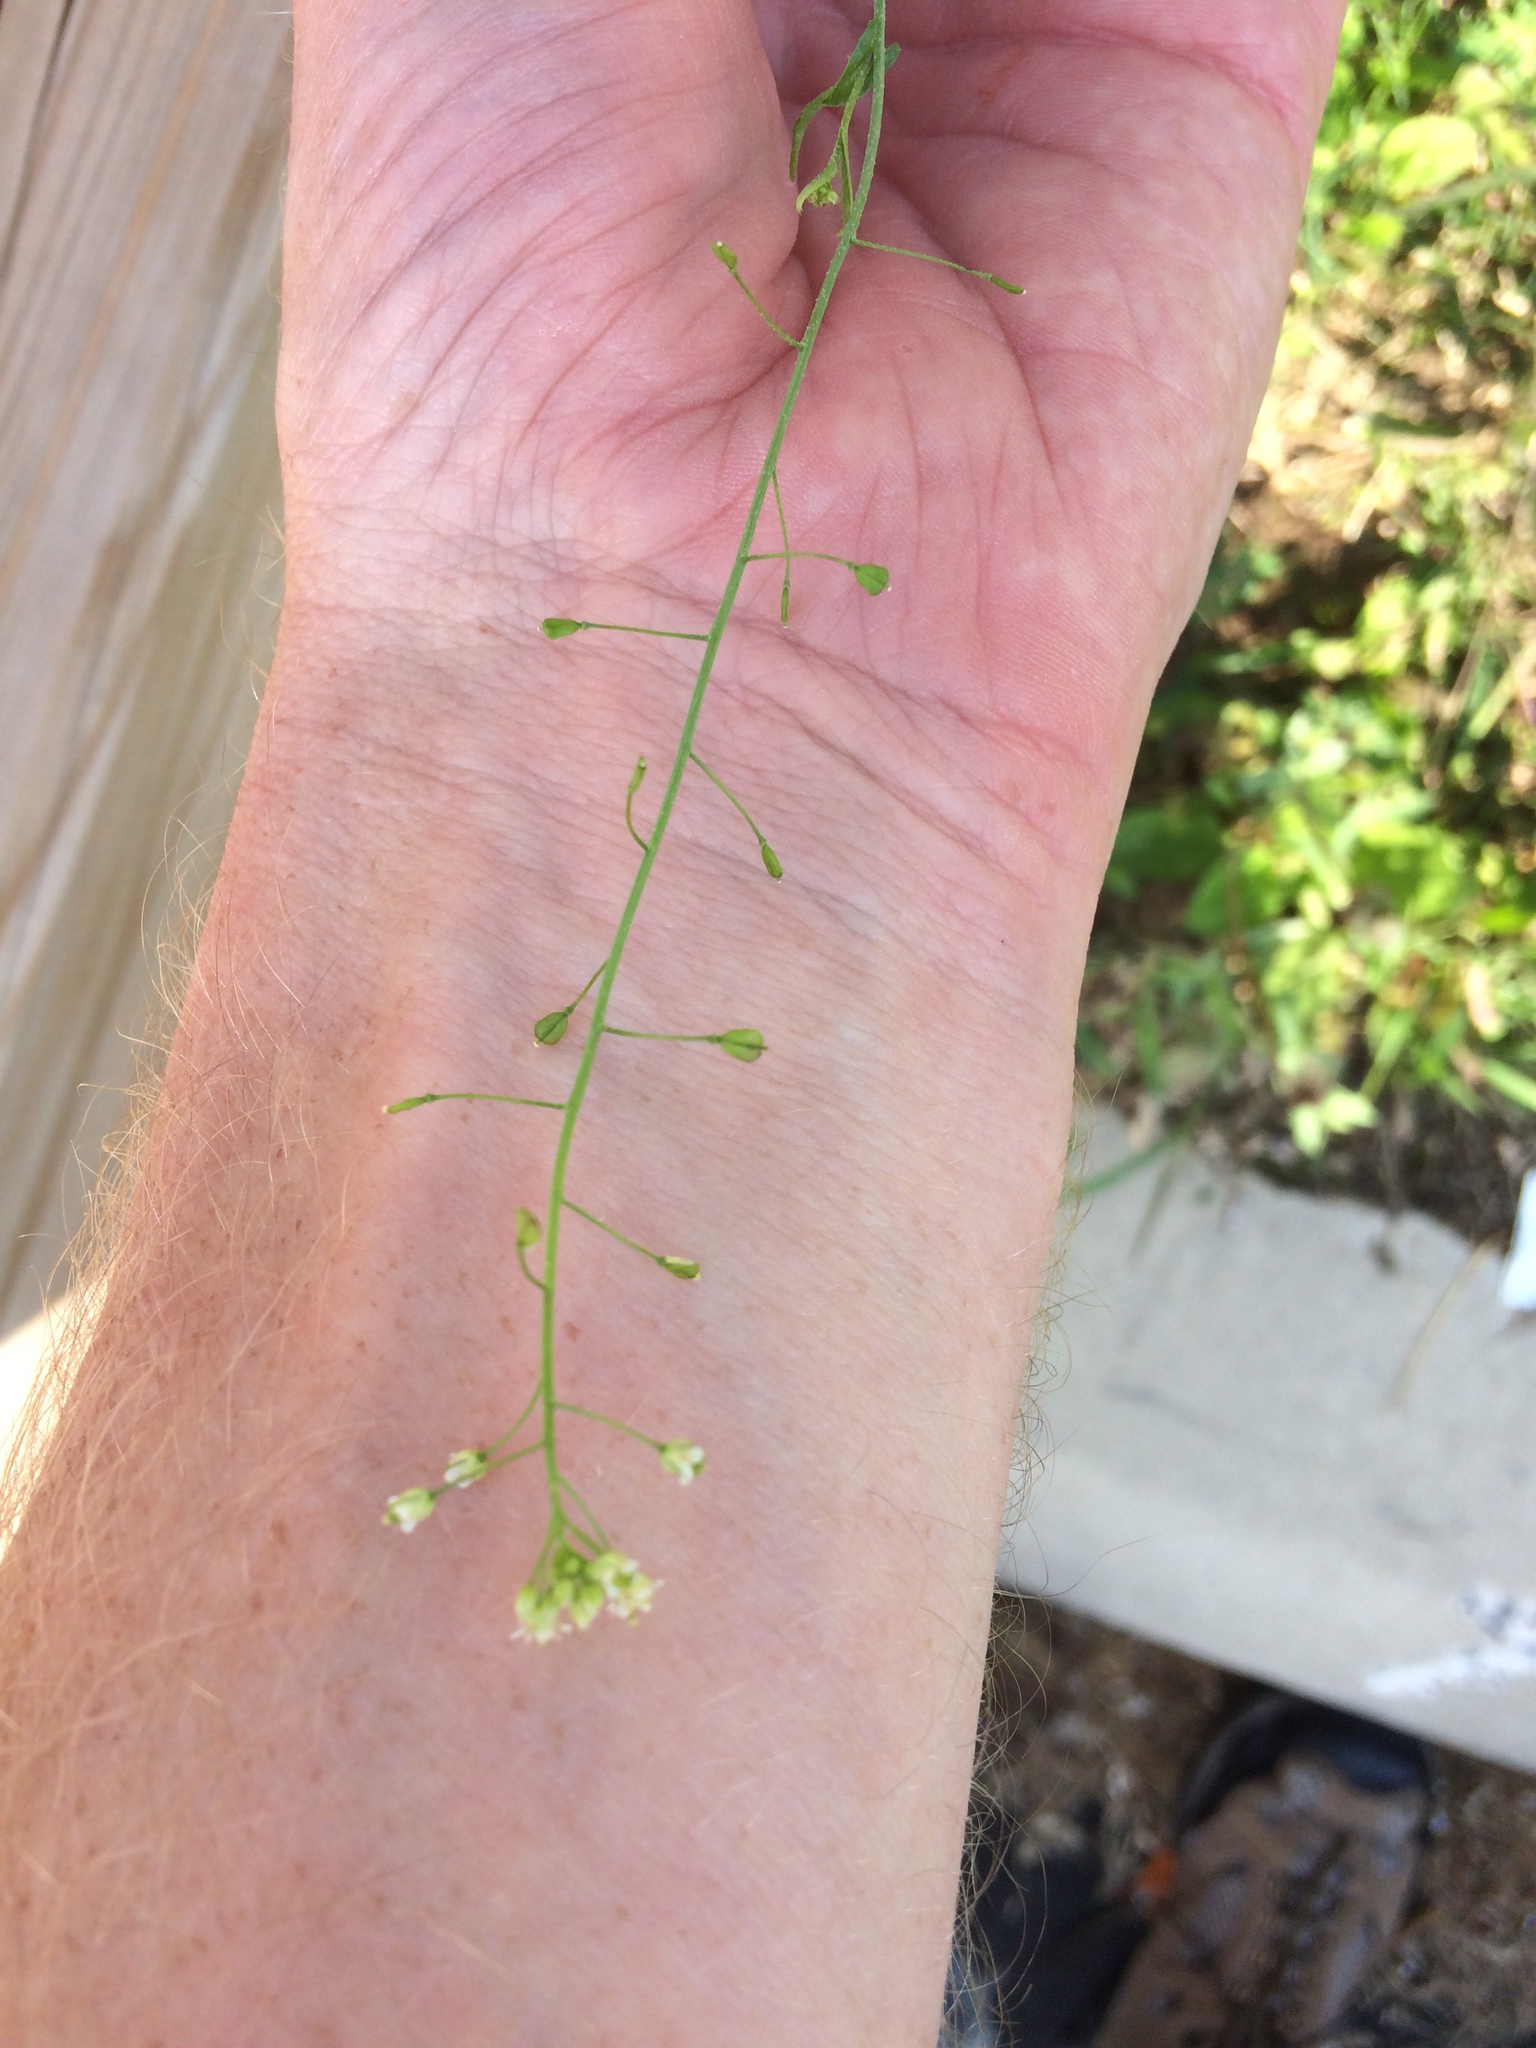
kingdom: Plantae
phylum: Tracheophyta
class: Magnoliopsida
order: Brassicales
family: Brassicaceae
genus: Capsella
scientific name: Capsella bursa-pastoris
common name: Shepherd's purse
